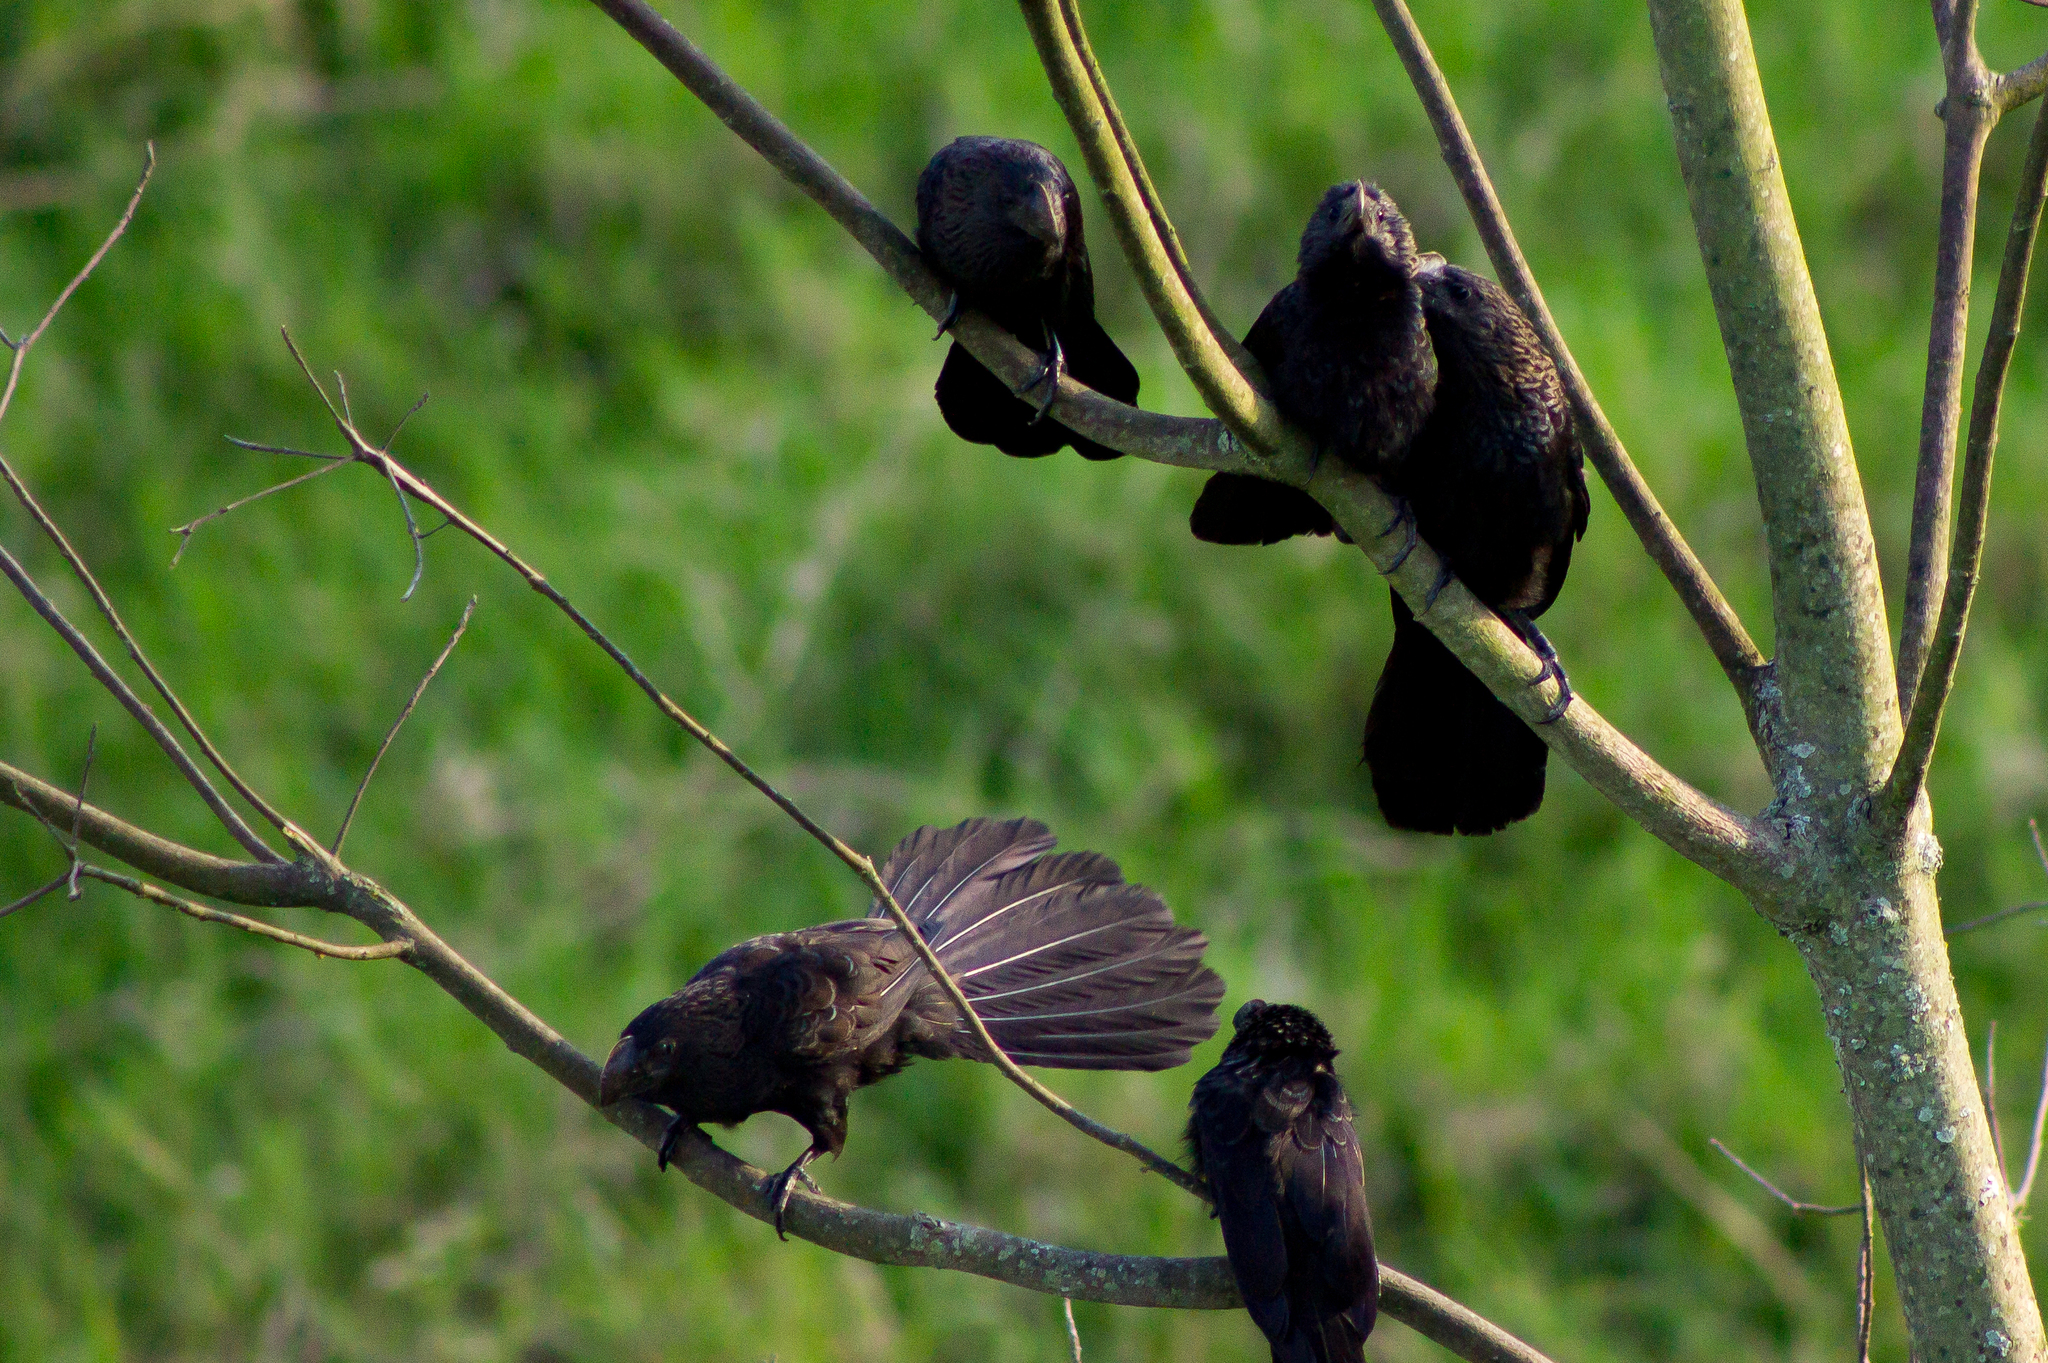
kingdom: Animalia
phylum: Chordata
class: Aves
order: Cuculiformes
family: Cuculidae
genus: Crotophaga
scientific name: Crotophaga ani
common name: Smooth-billed ani
